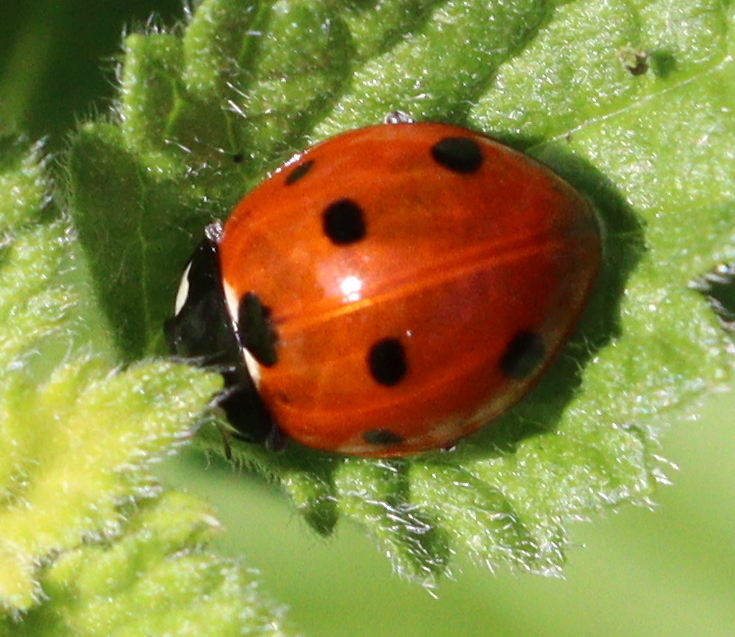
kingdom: Animalia
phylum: Arthropoda
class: Insecta
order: Coleoptera
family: Coccinellidae
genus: Coccinella
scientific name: Coccinella septempunctata
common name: Sevenspotted lady beetle
